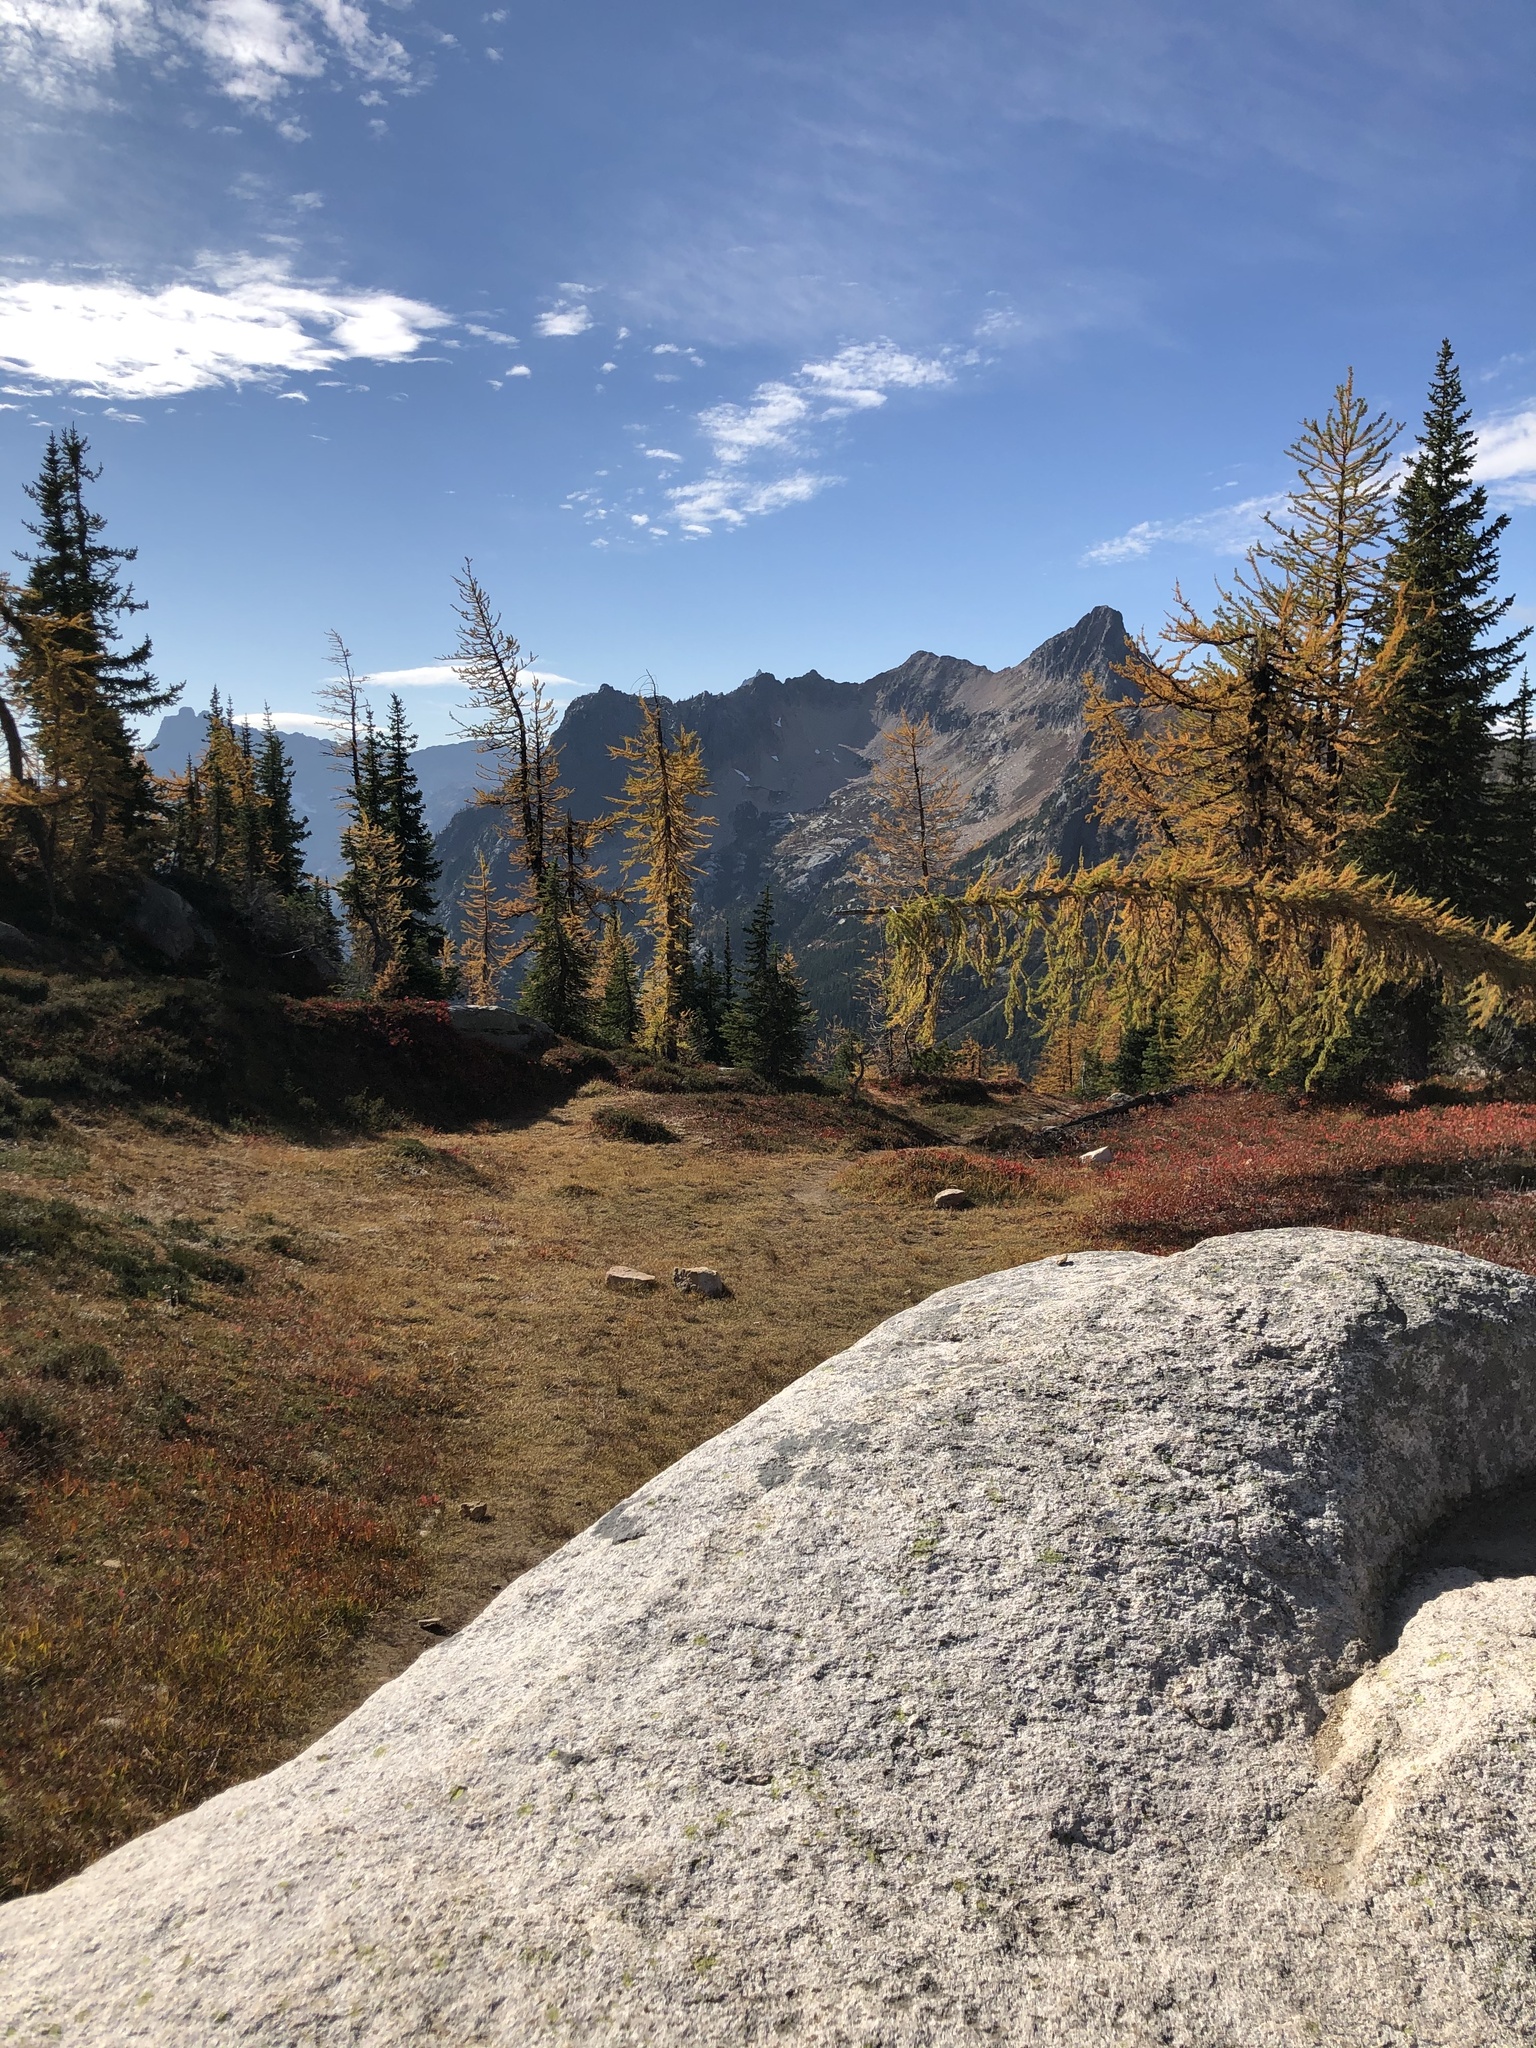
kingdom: Plantae
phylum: Tracheophyta
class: Pinopsida
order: Pinales
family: Pinaceae
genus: Larix
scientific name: Larix lyallii
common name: Alpine larch
